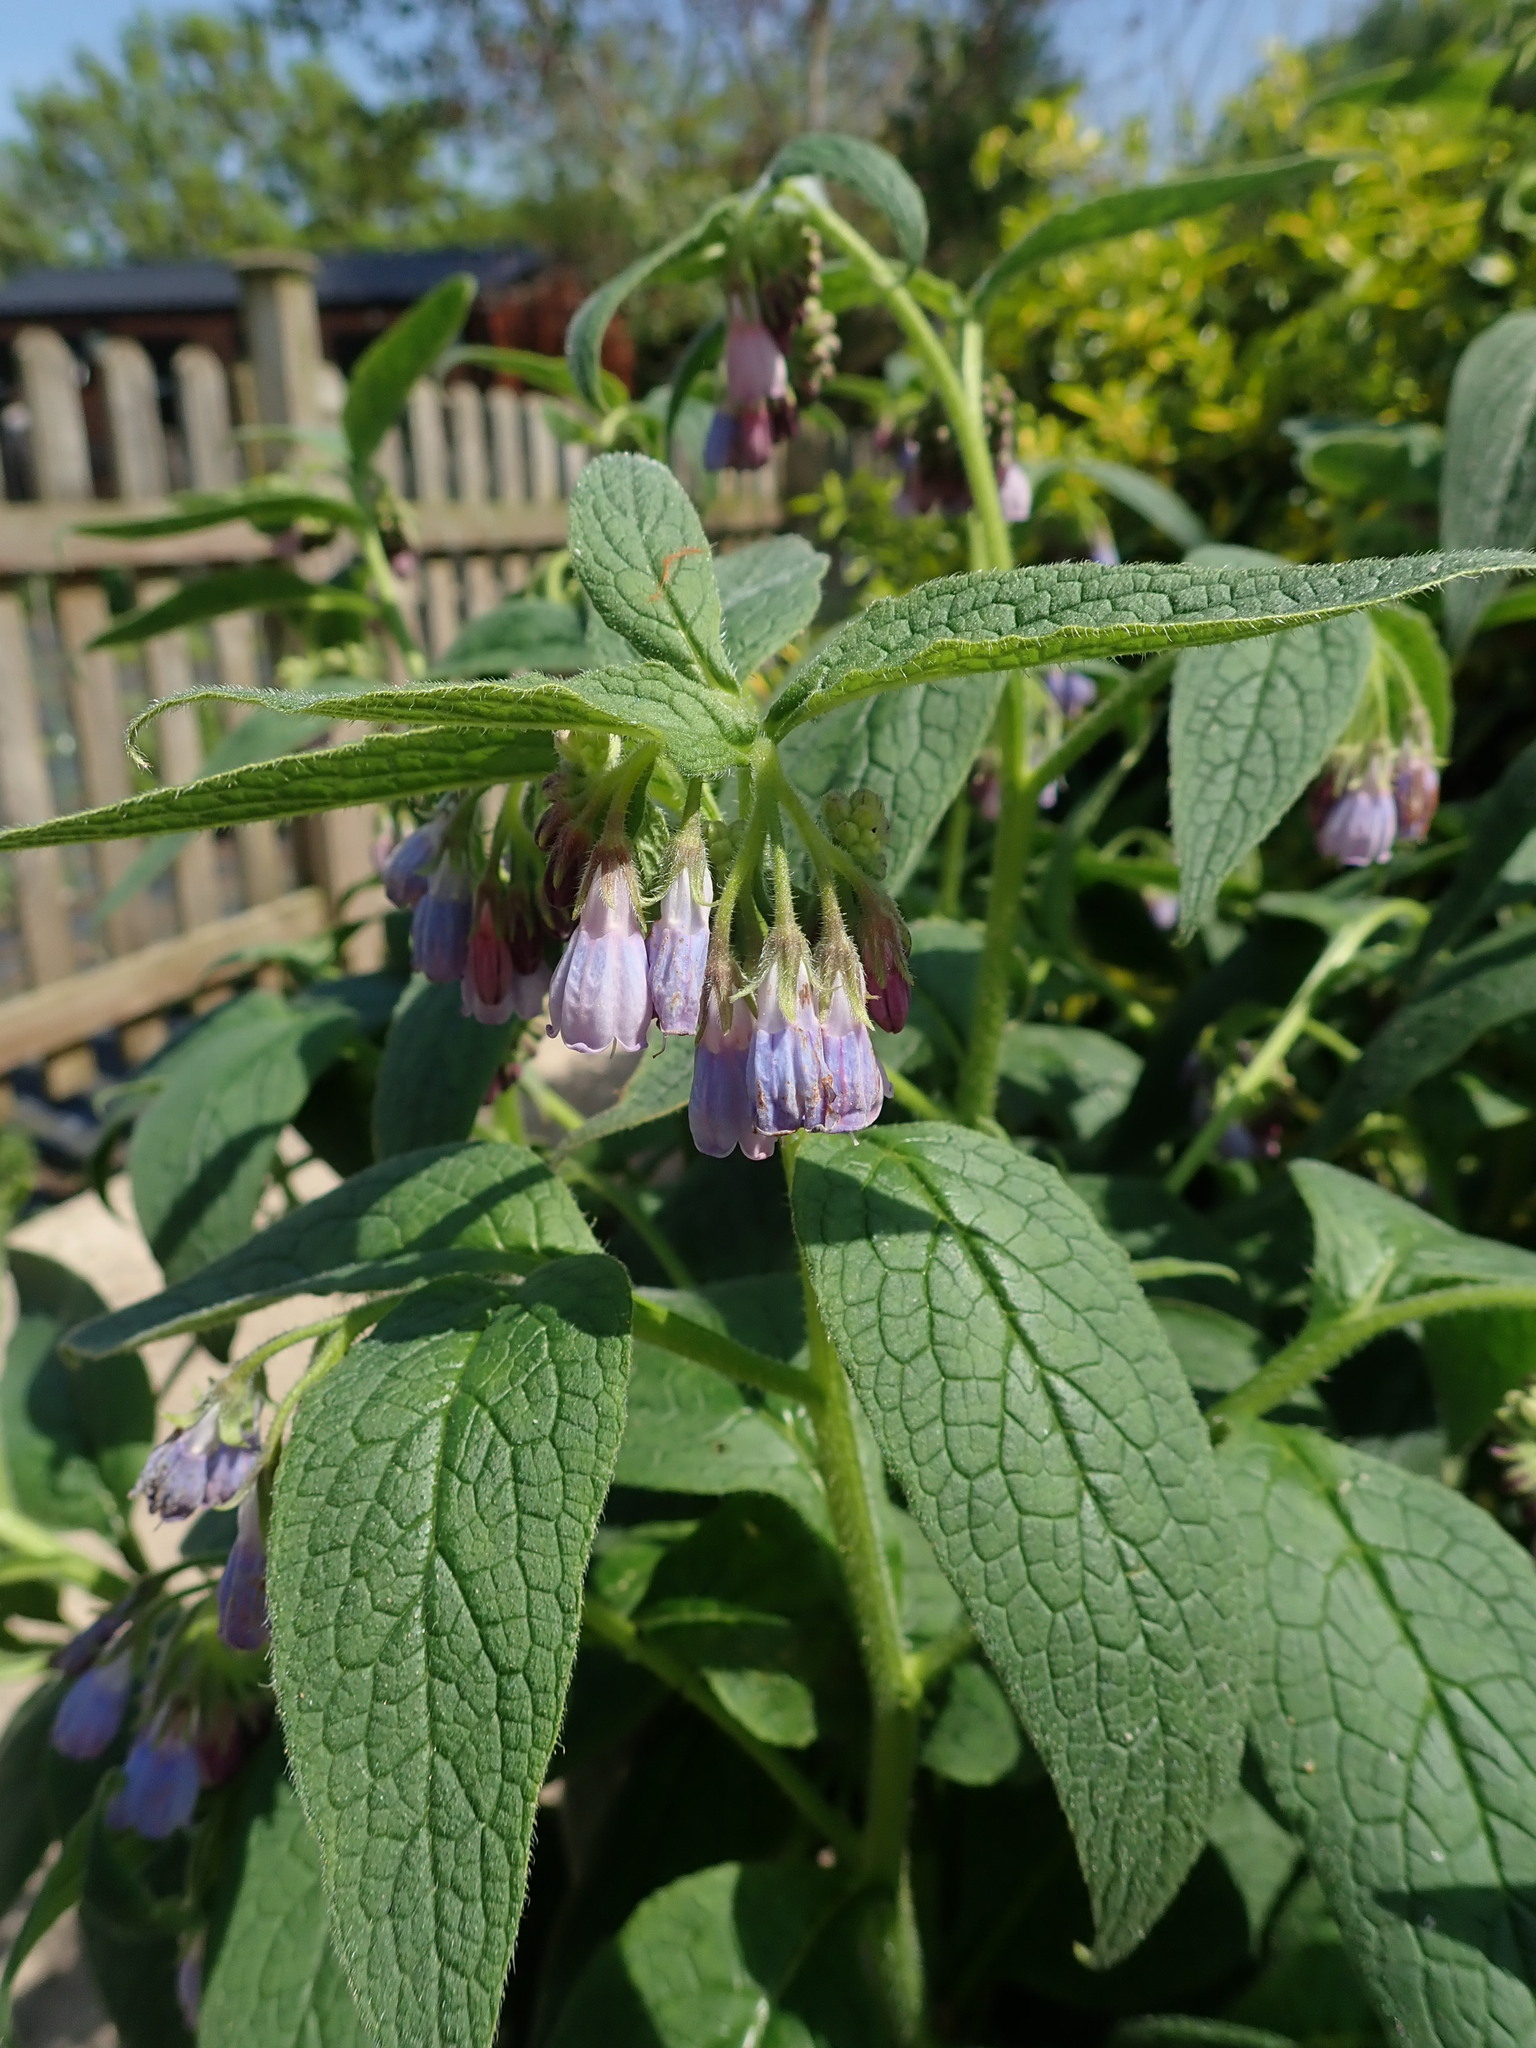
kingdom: Plantae
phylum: Tracheophyta
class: Magnoliopsida
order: Boraginales
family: Boraginaceae
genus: Symphytum
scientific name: Symphytum uplandicum
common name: Russian comfrey
